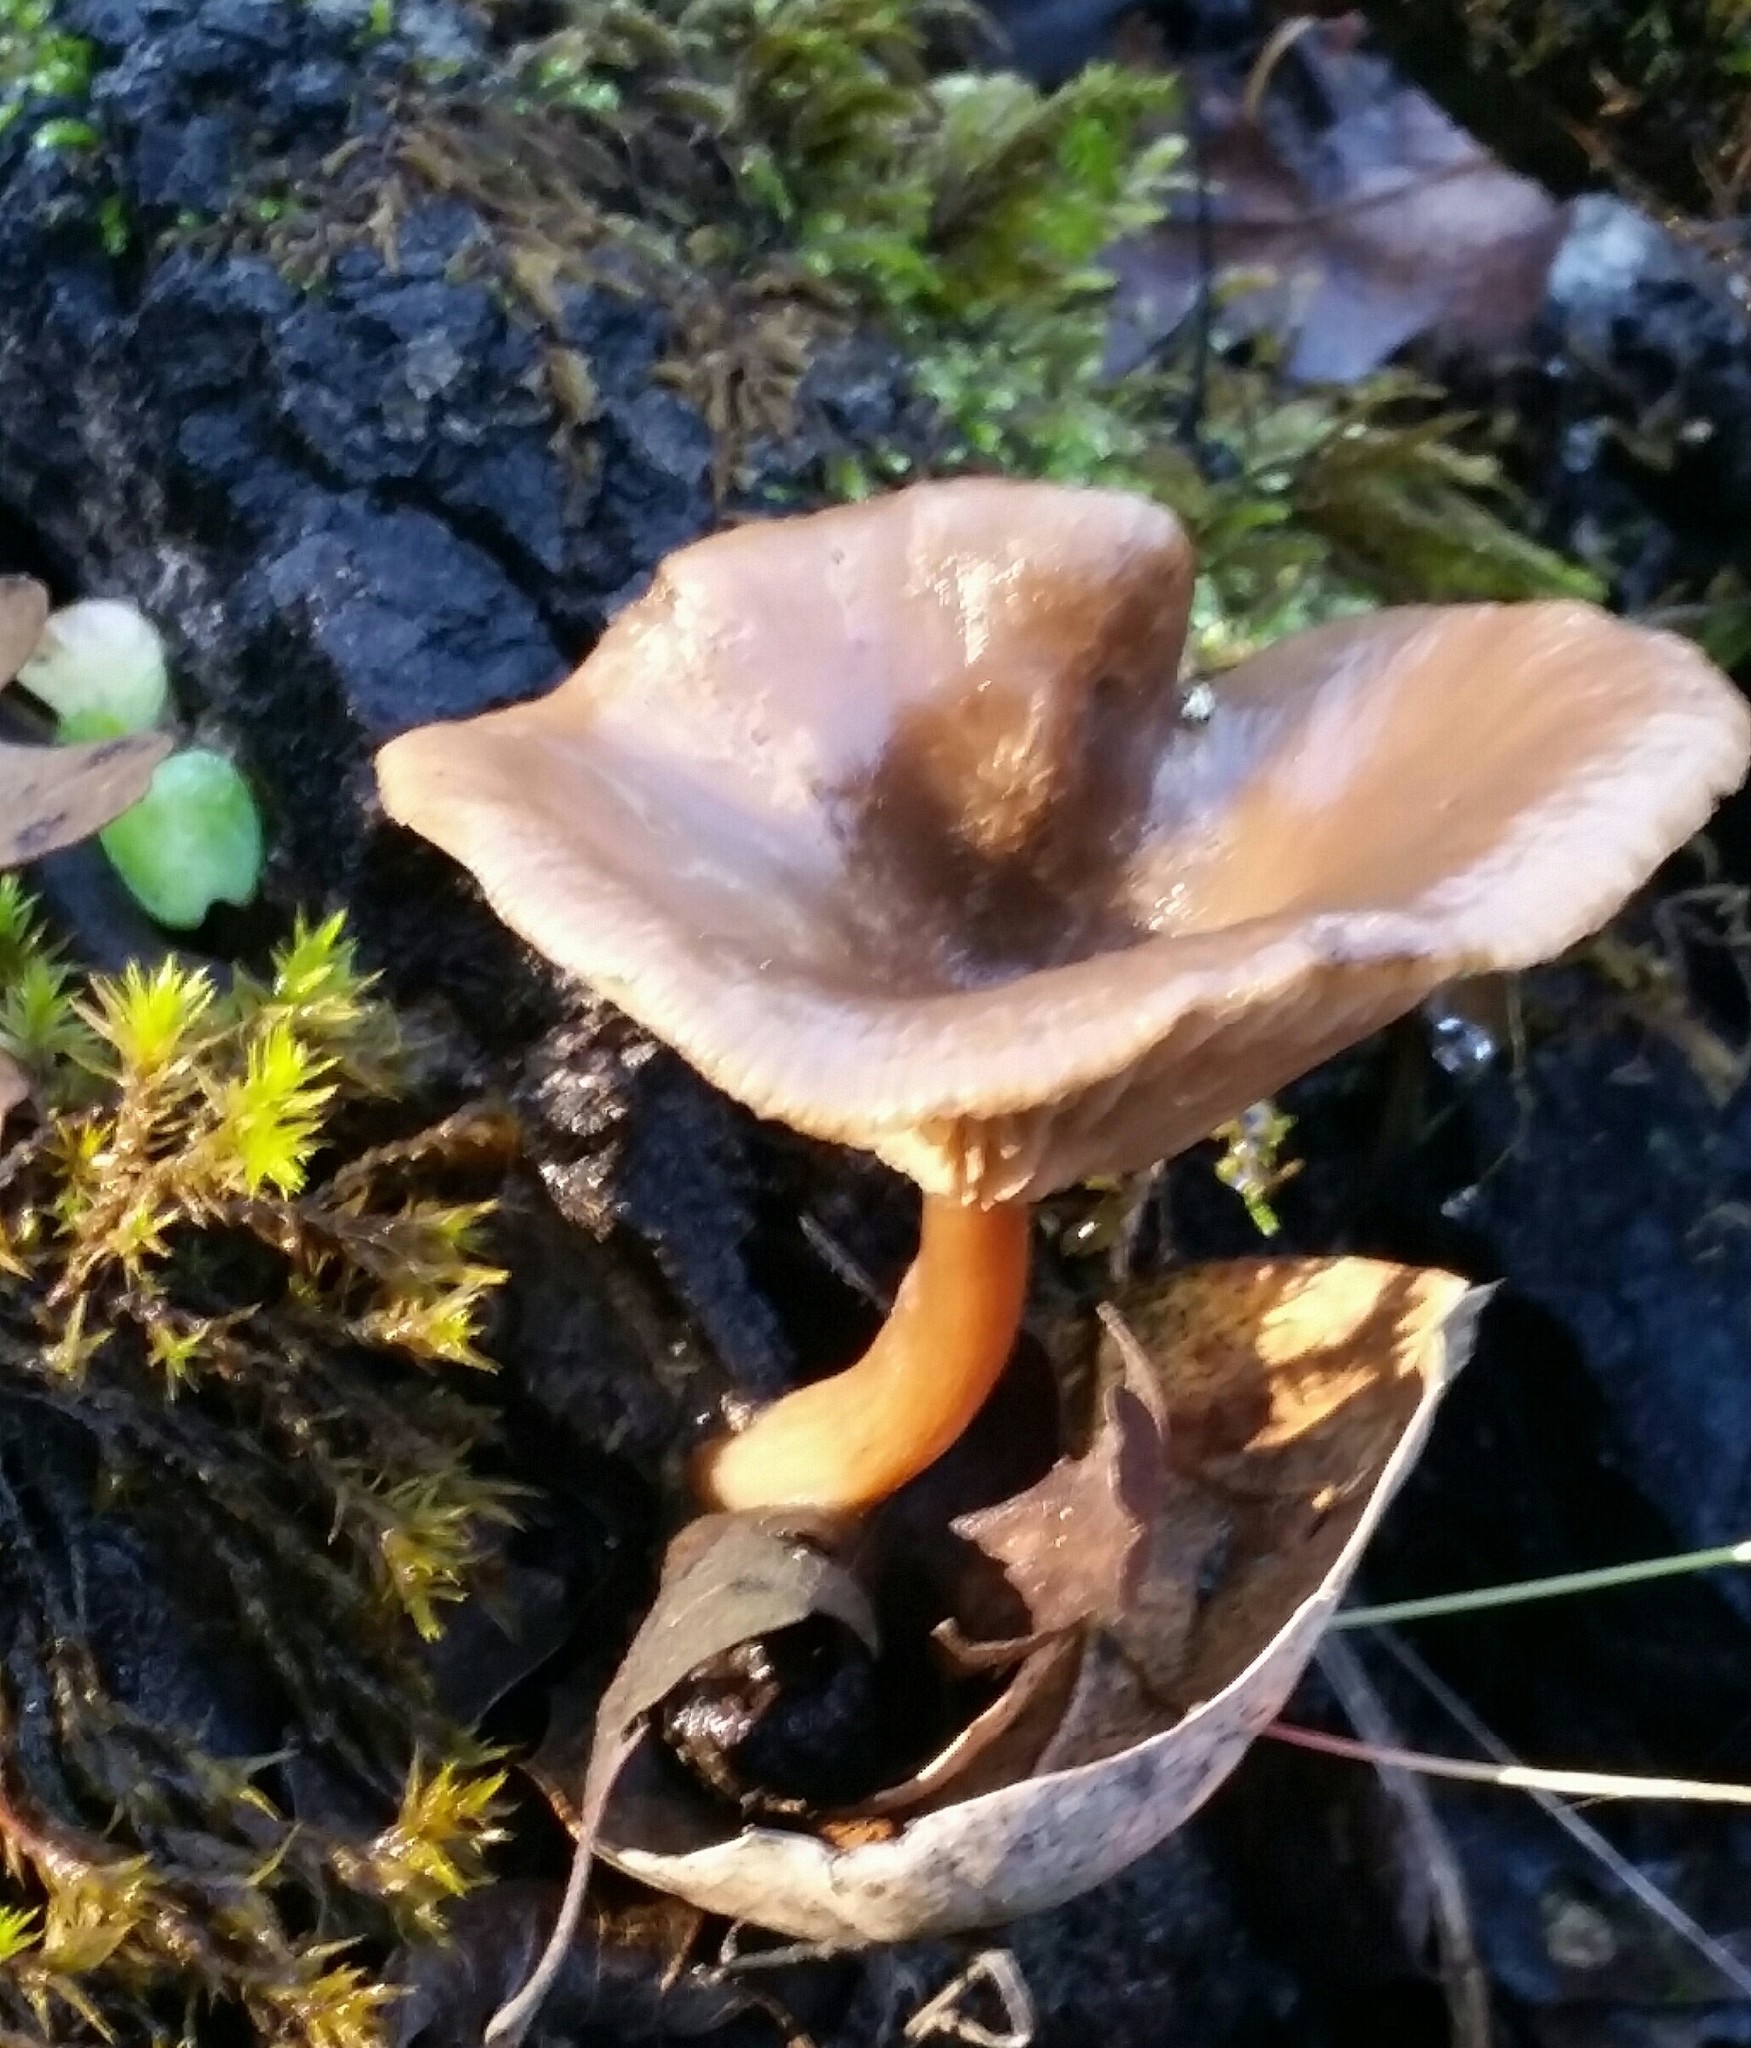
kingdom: Fungi
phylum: Basidiomycota
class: Agaricomycetes
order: Agaricales
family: Pseudoclitocybaceae
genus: Pseudoclitocybe
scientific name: Pseudoclitocybe cyathiformis
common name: Goblet
